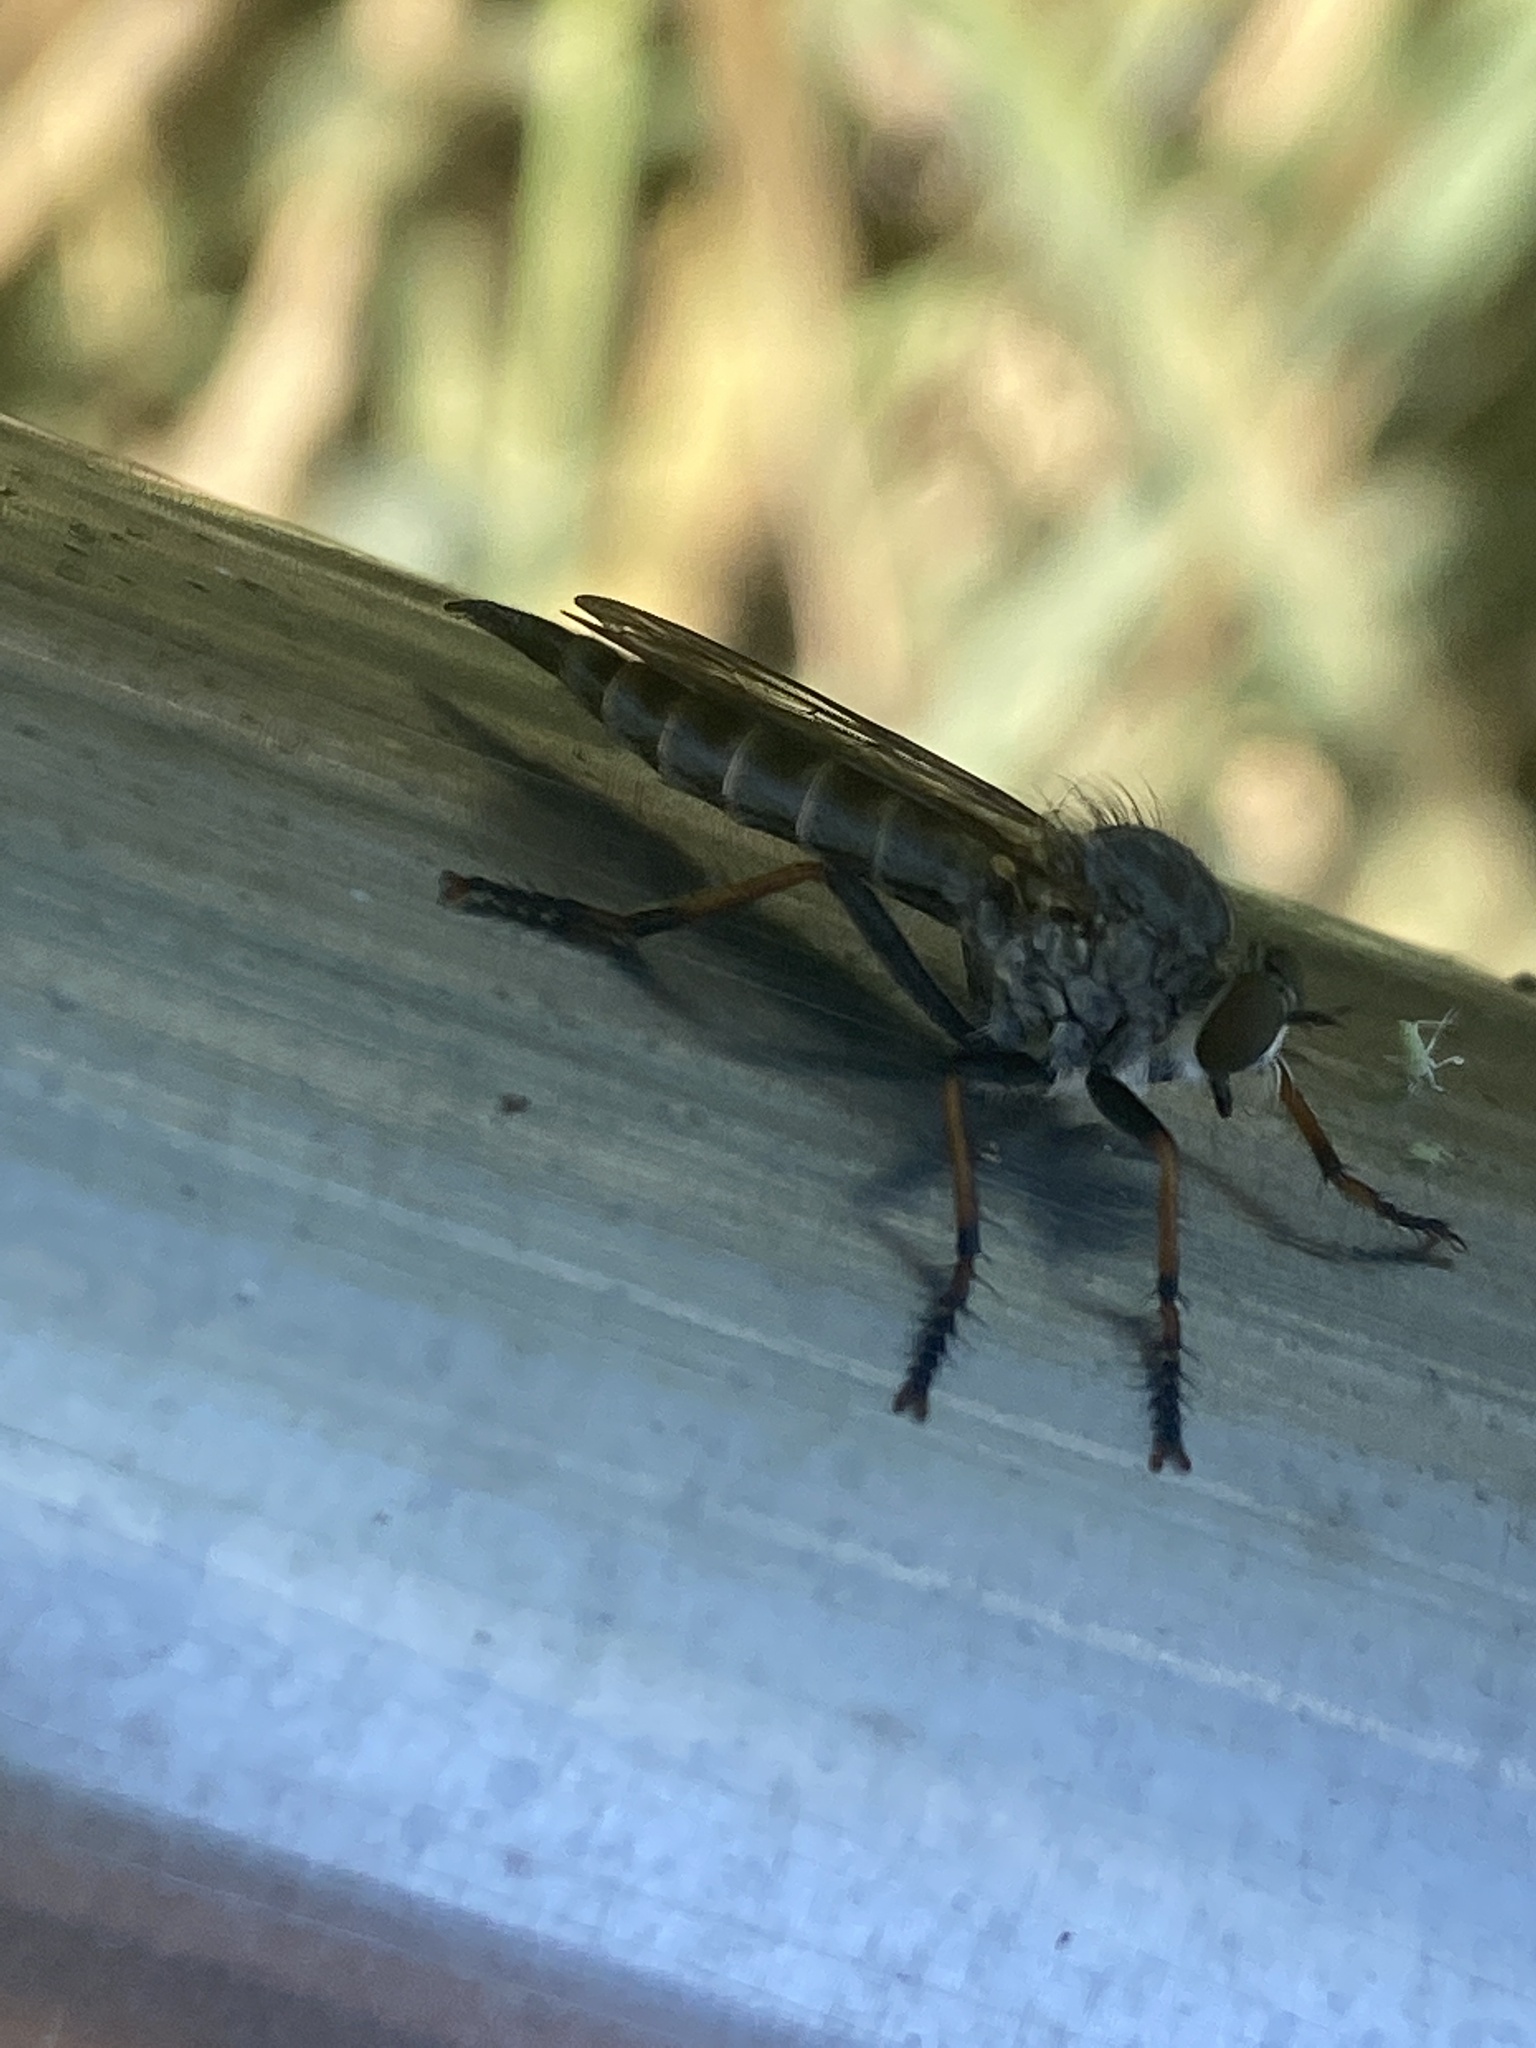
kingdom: Animalia
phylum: Arthropoda
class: Insecta
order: Diptera
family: Asilidae
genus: Paritamus
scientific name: Paritamus geniculatus
